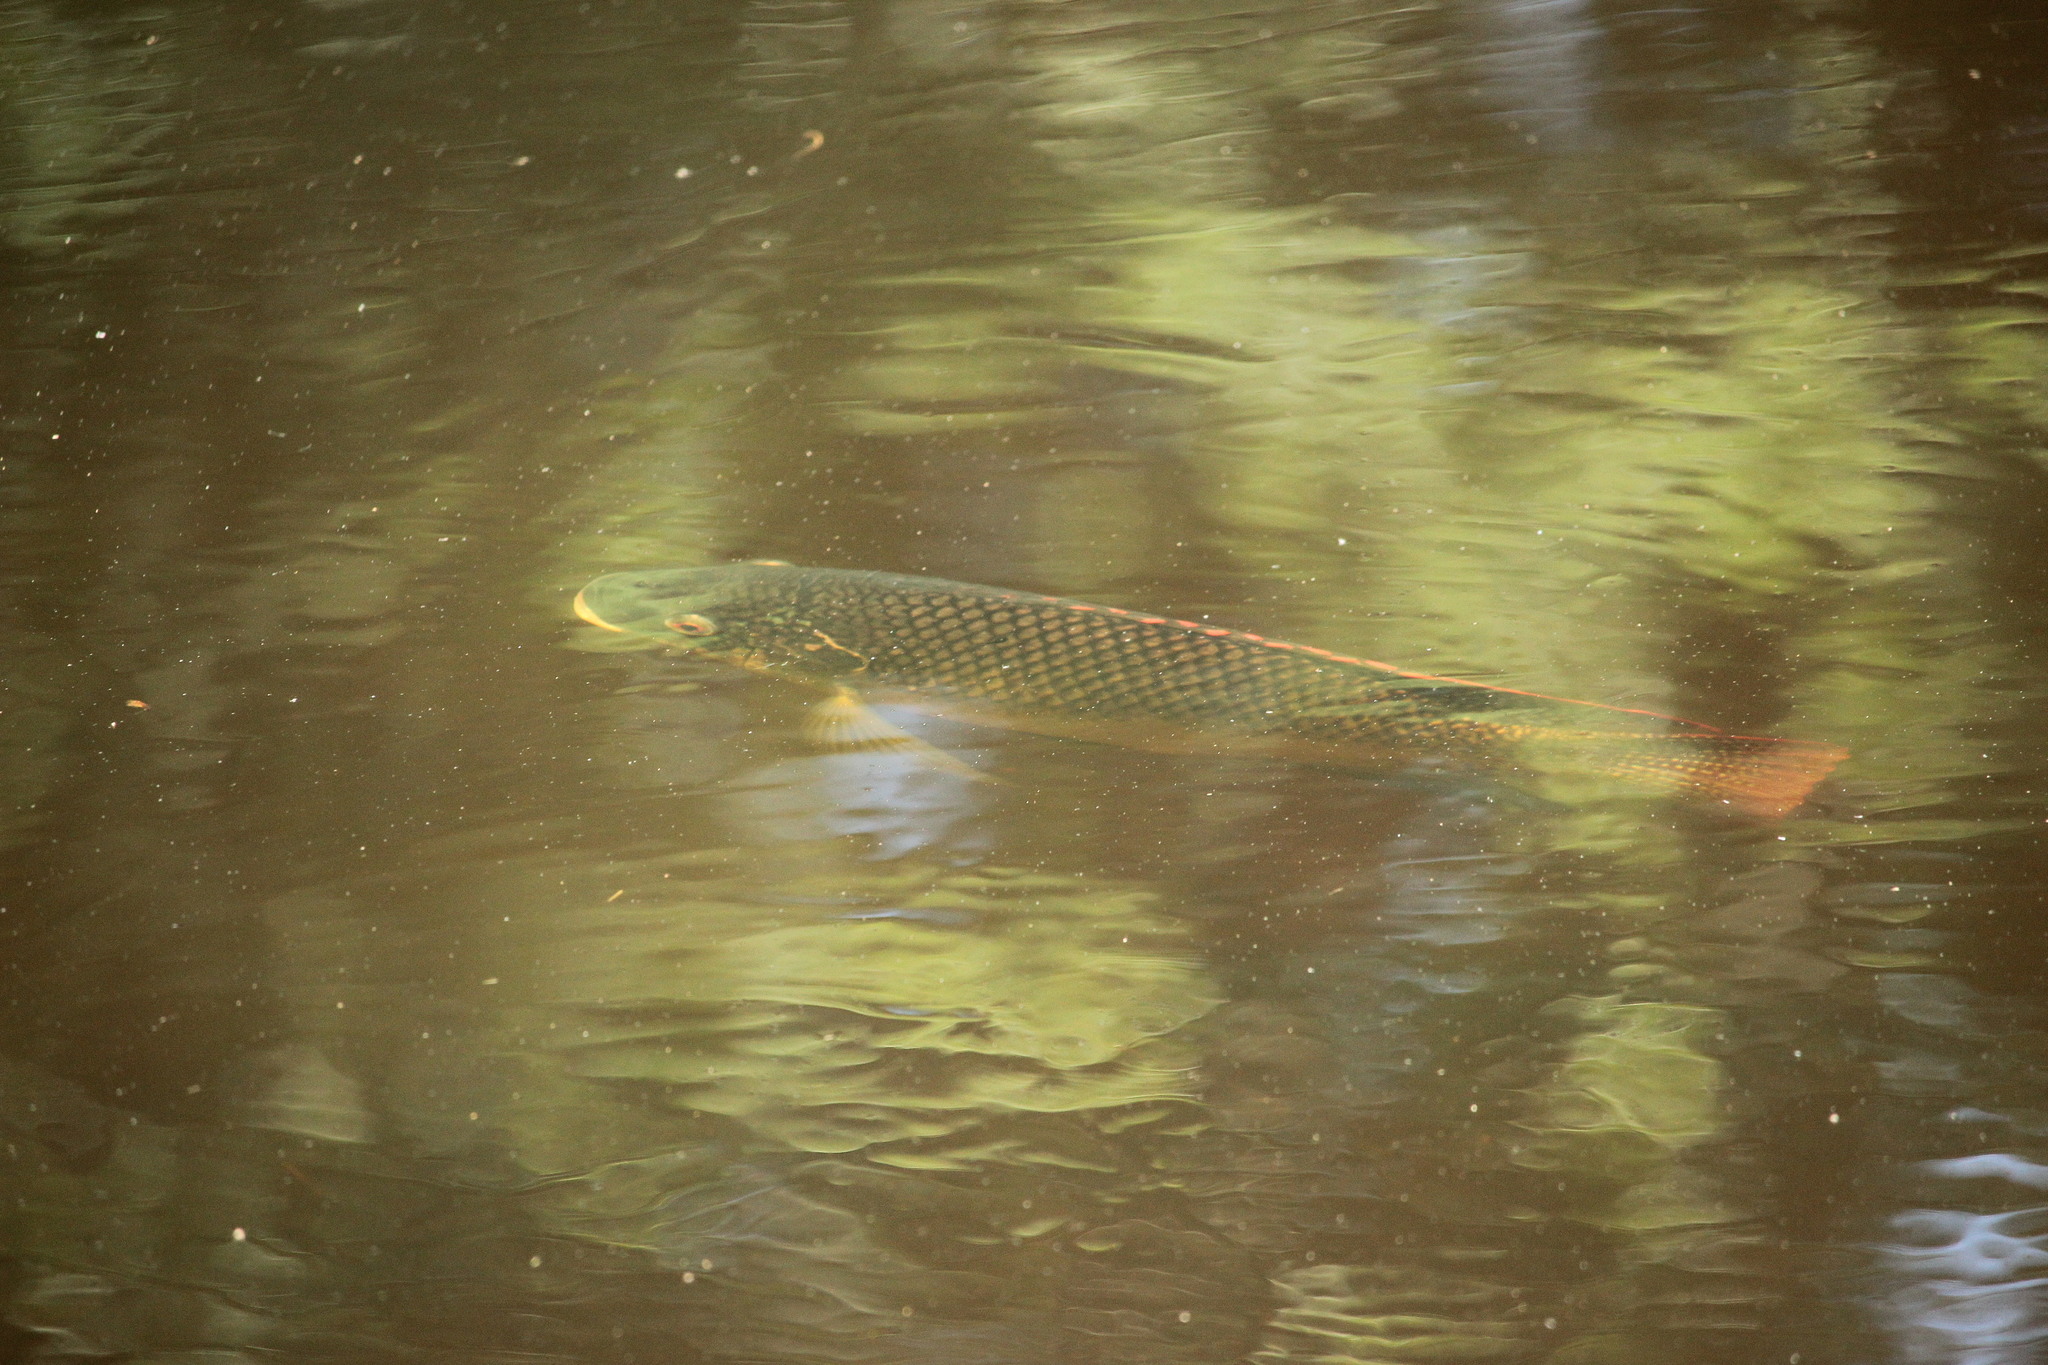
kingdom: Animalia
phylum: Chordata
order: Perciformes
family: Cichlidae
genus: Oreochromis
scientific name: Oreochromis aureus
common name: Blue tilapia
